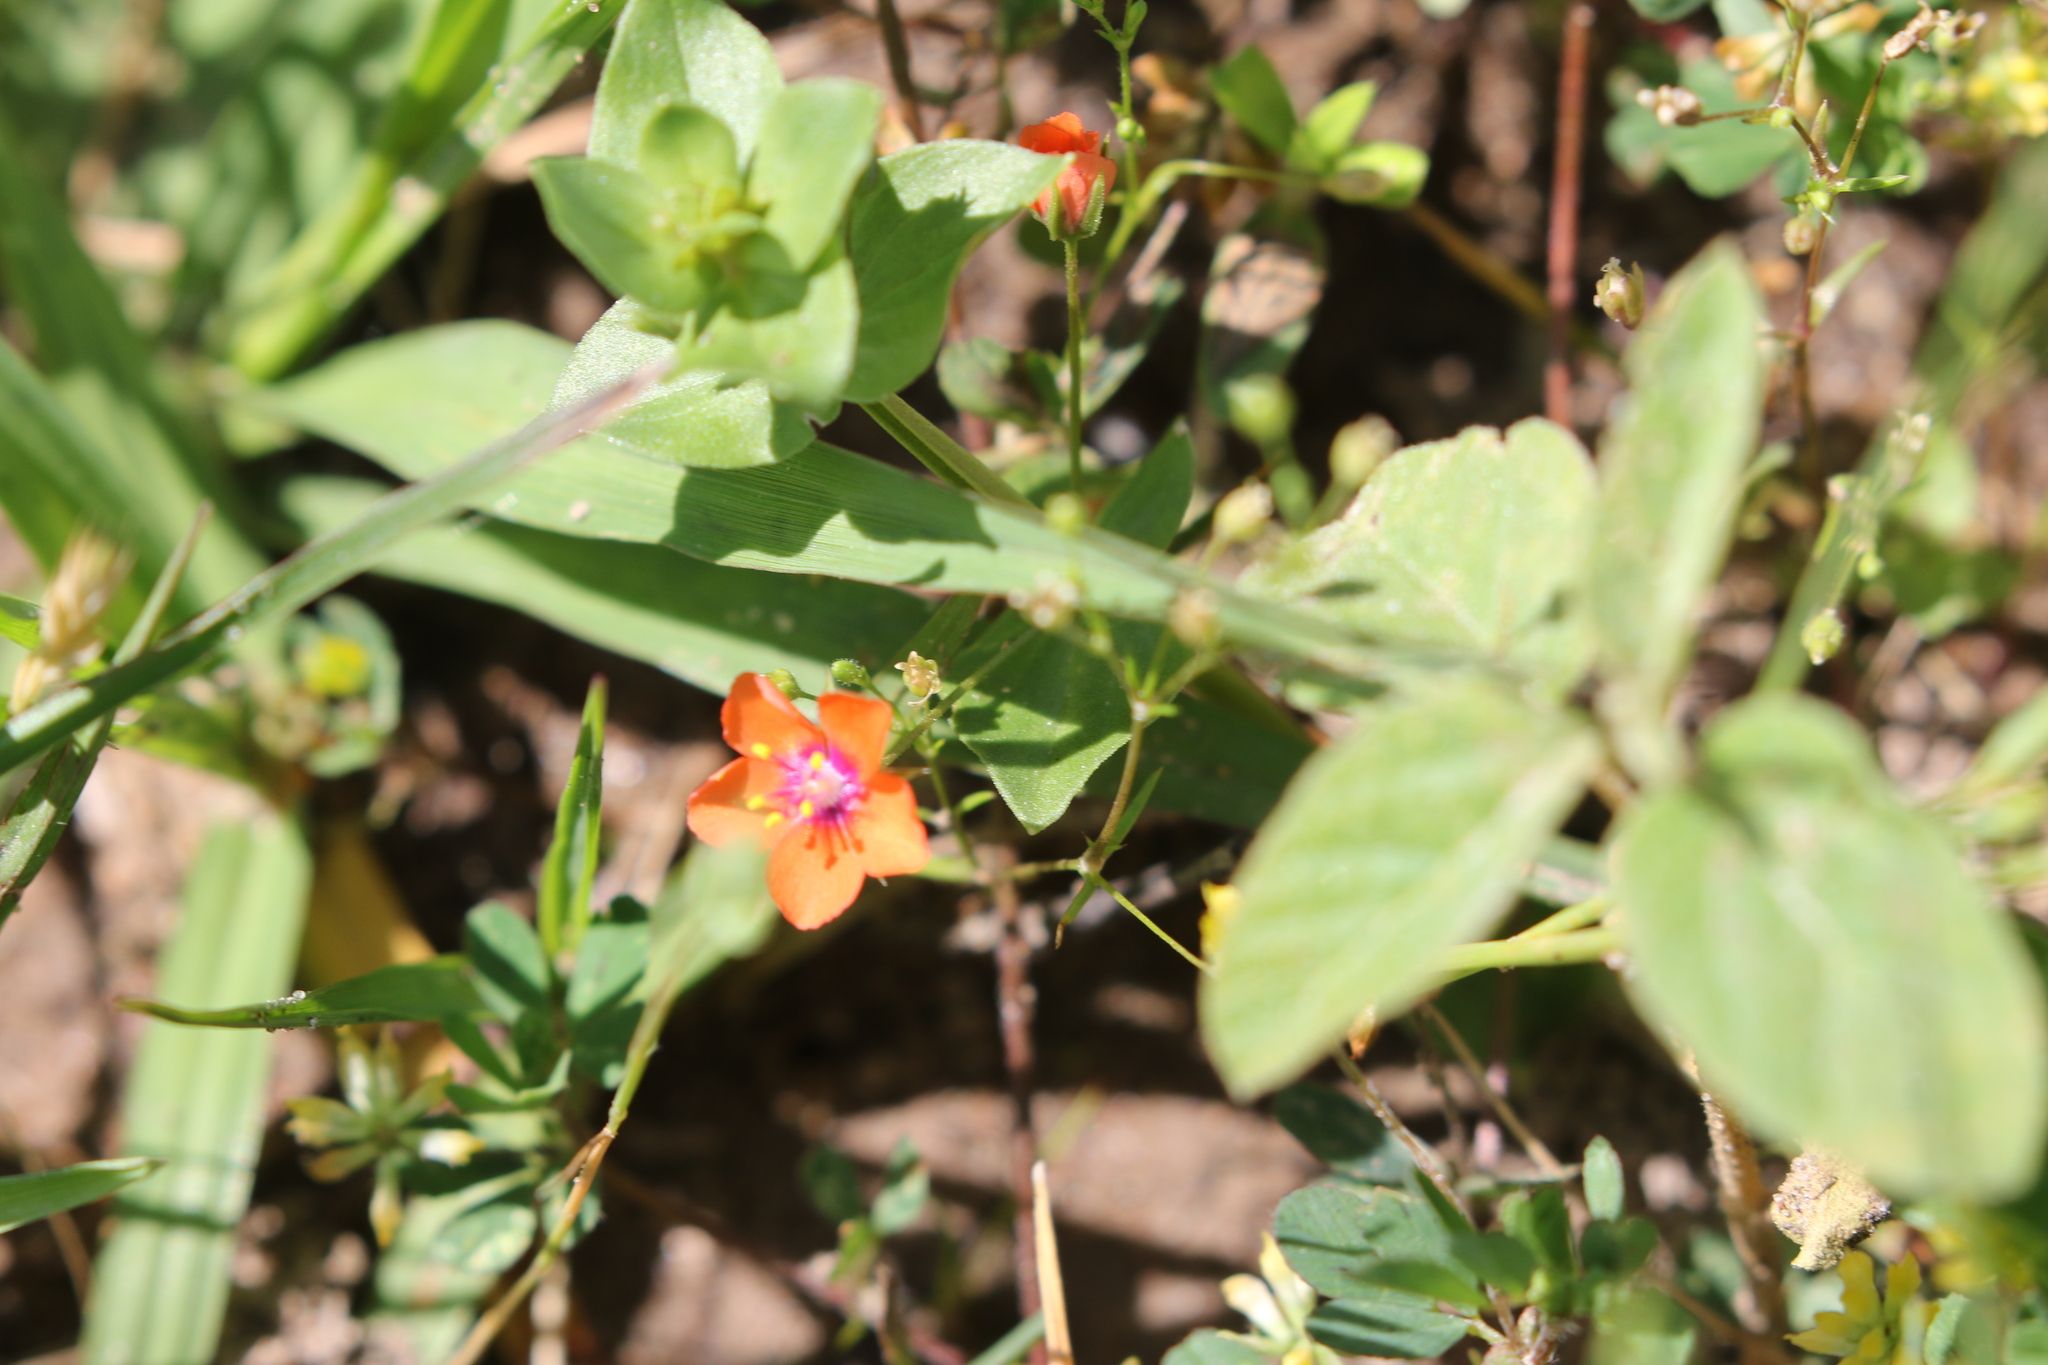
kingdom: Plantae
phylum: Tracheophyta
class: Magnoliopsida
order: Ericales
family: Primulaceae
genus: Lysimachia
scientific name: Lysimachia arvensis
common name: Scarlet pimpernel
